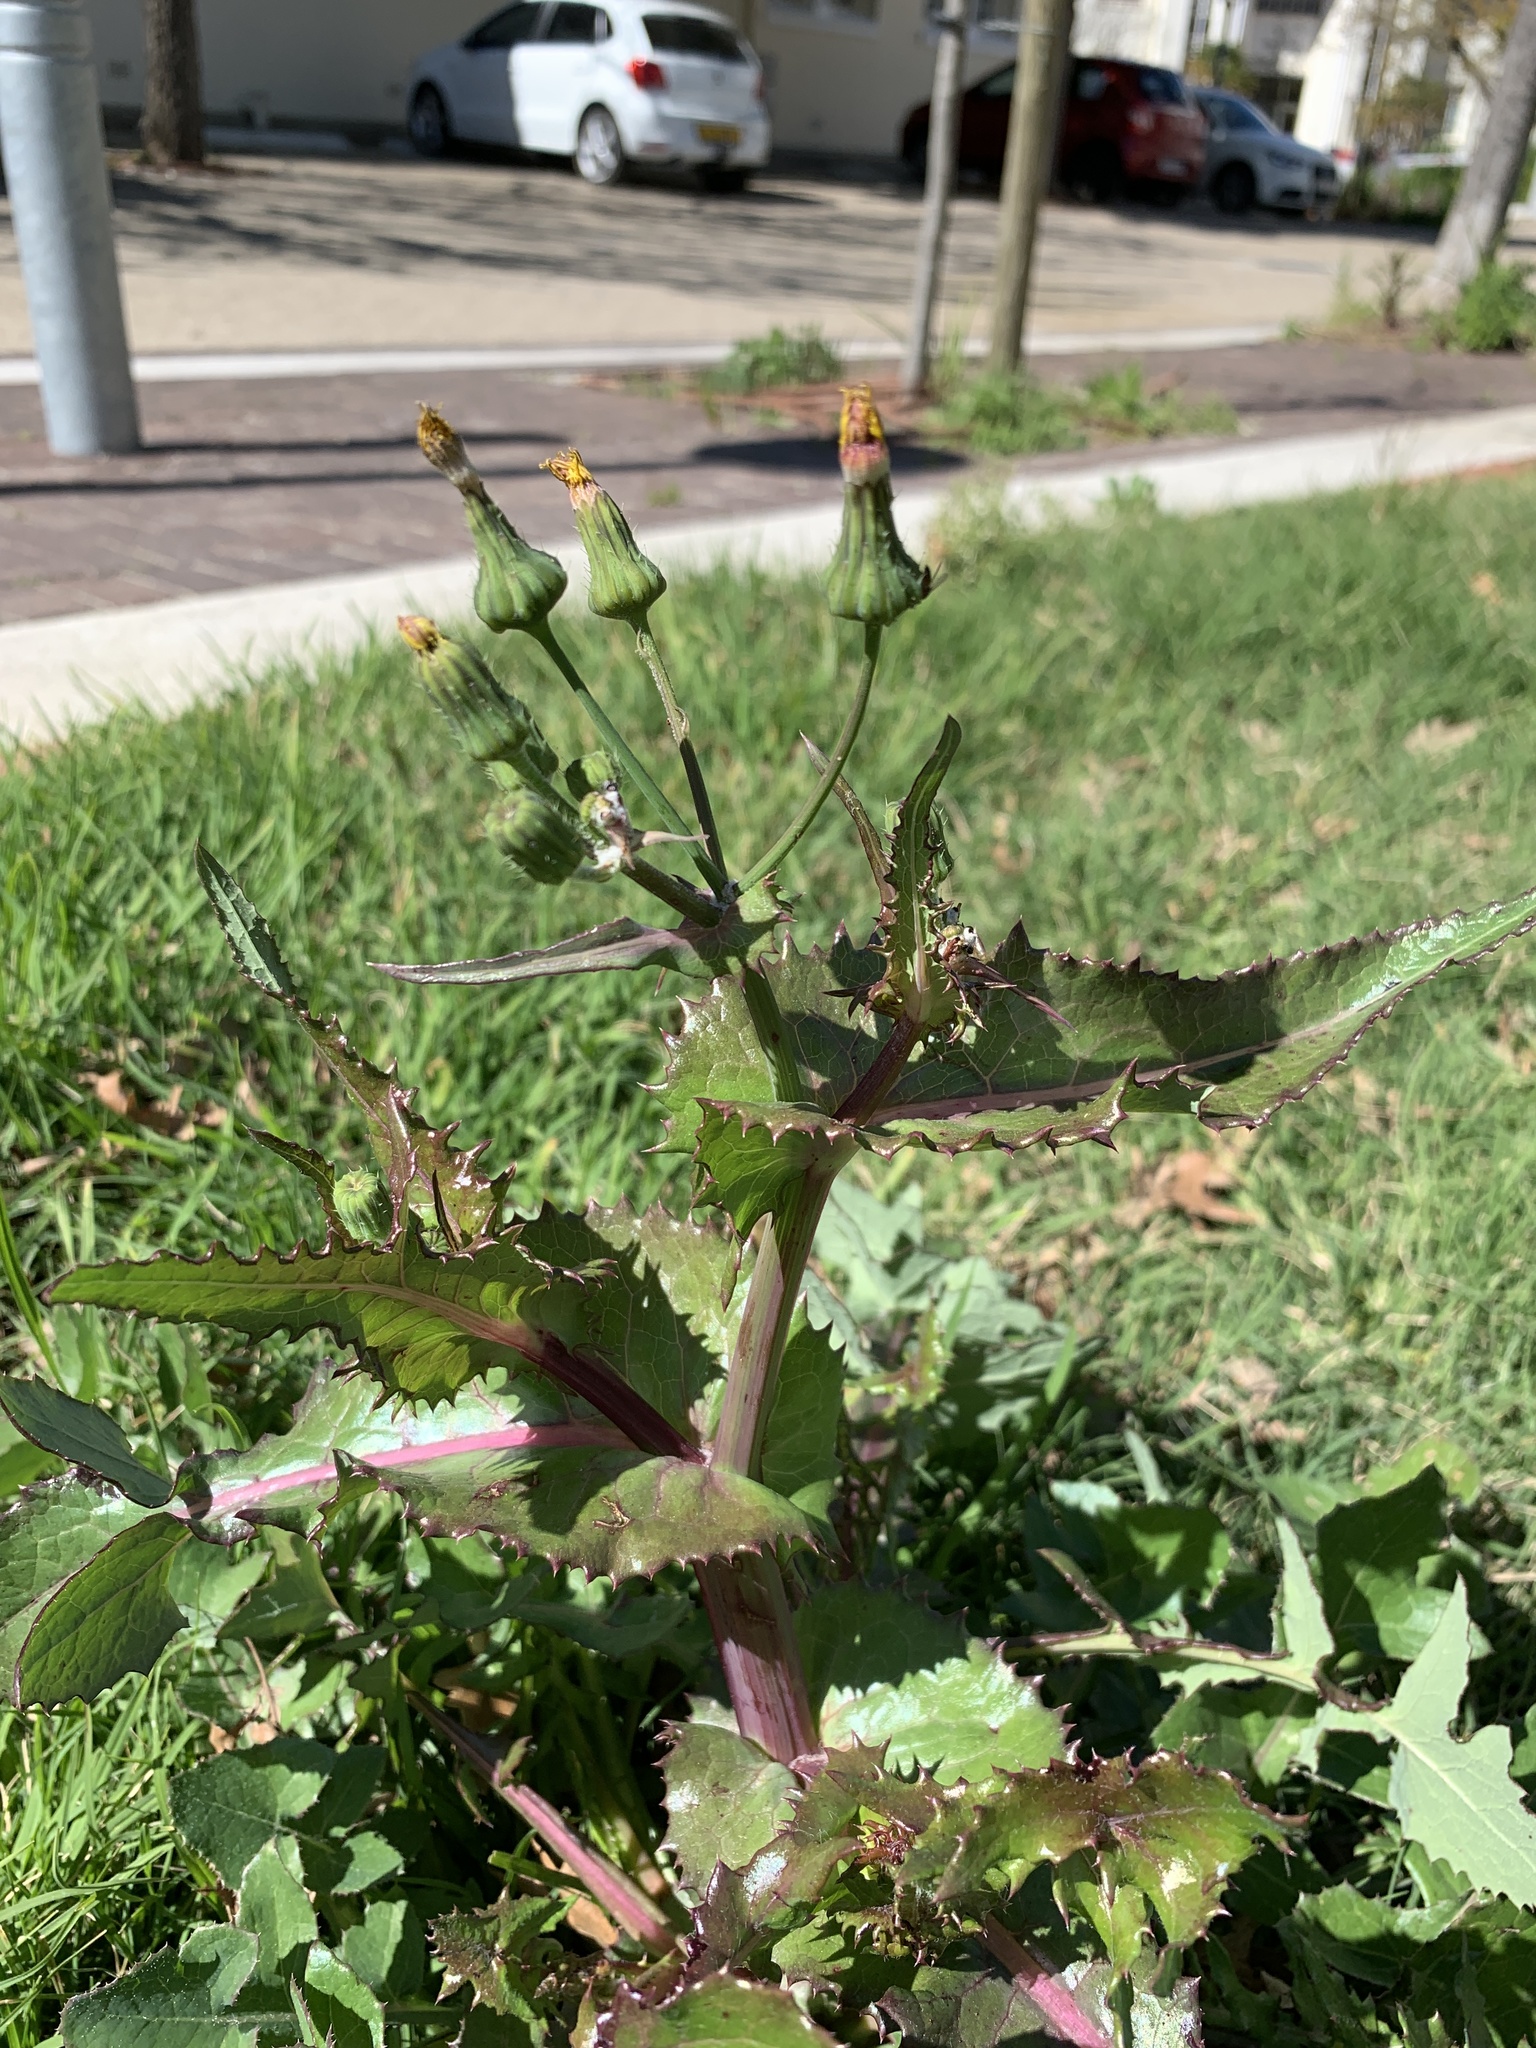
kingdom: Plantae
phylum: Tracheophyta
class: Magnoliopsida
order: Asterales
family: Asteraceae
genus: Sonchus
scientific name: Sonchus asper
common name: Prickly sow-thistle
